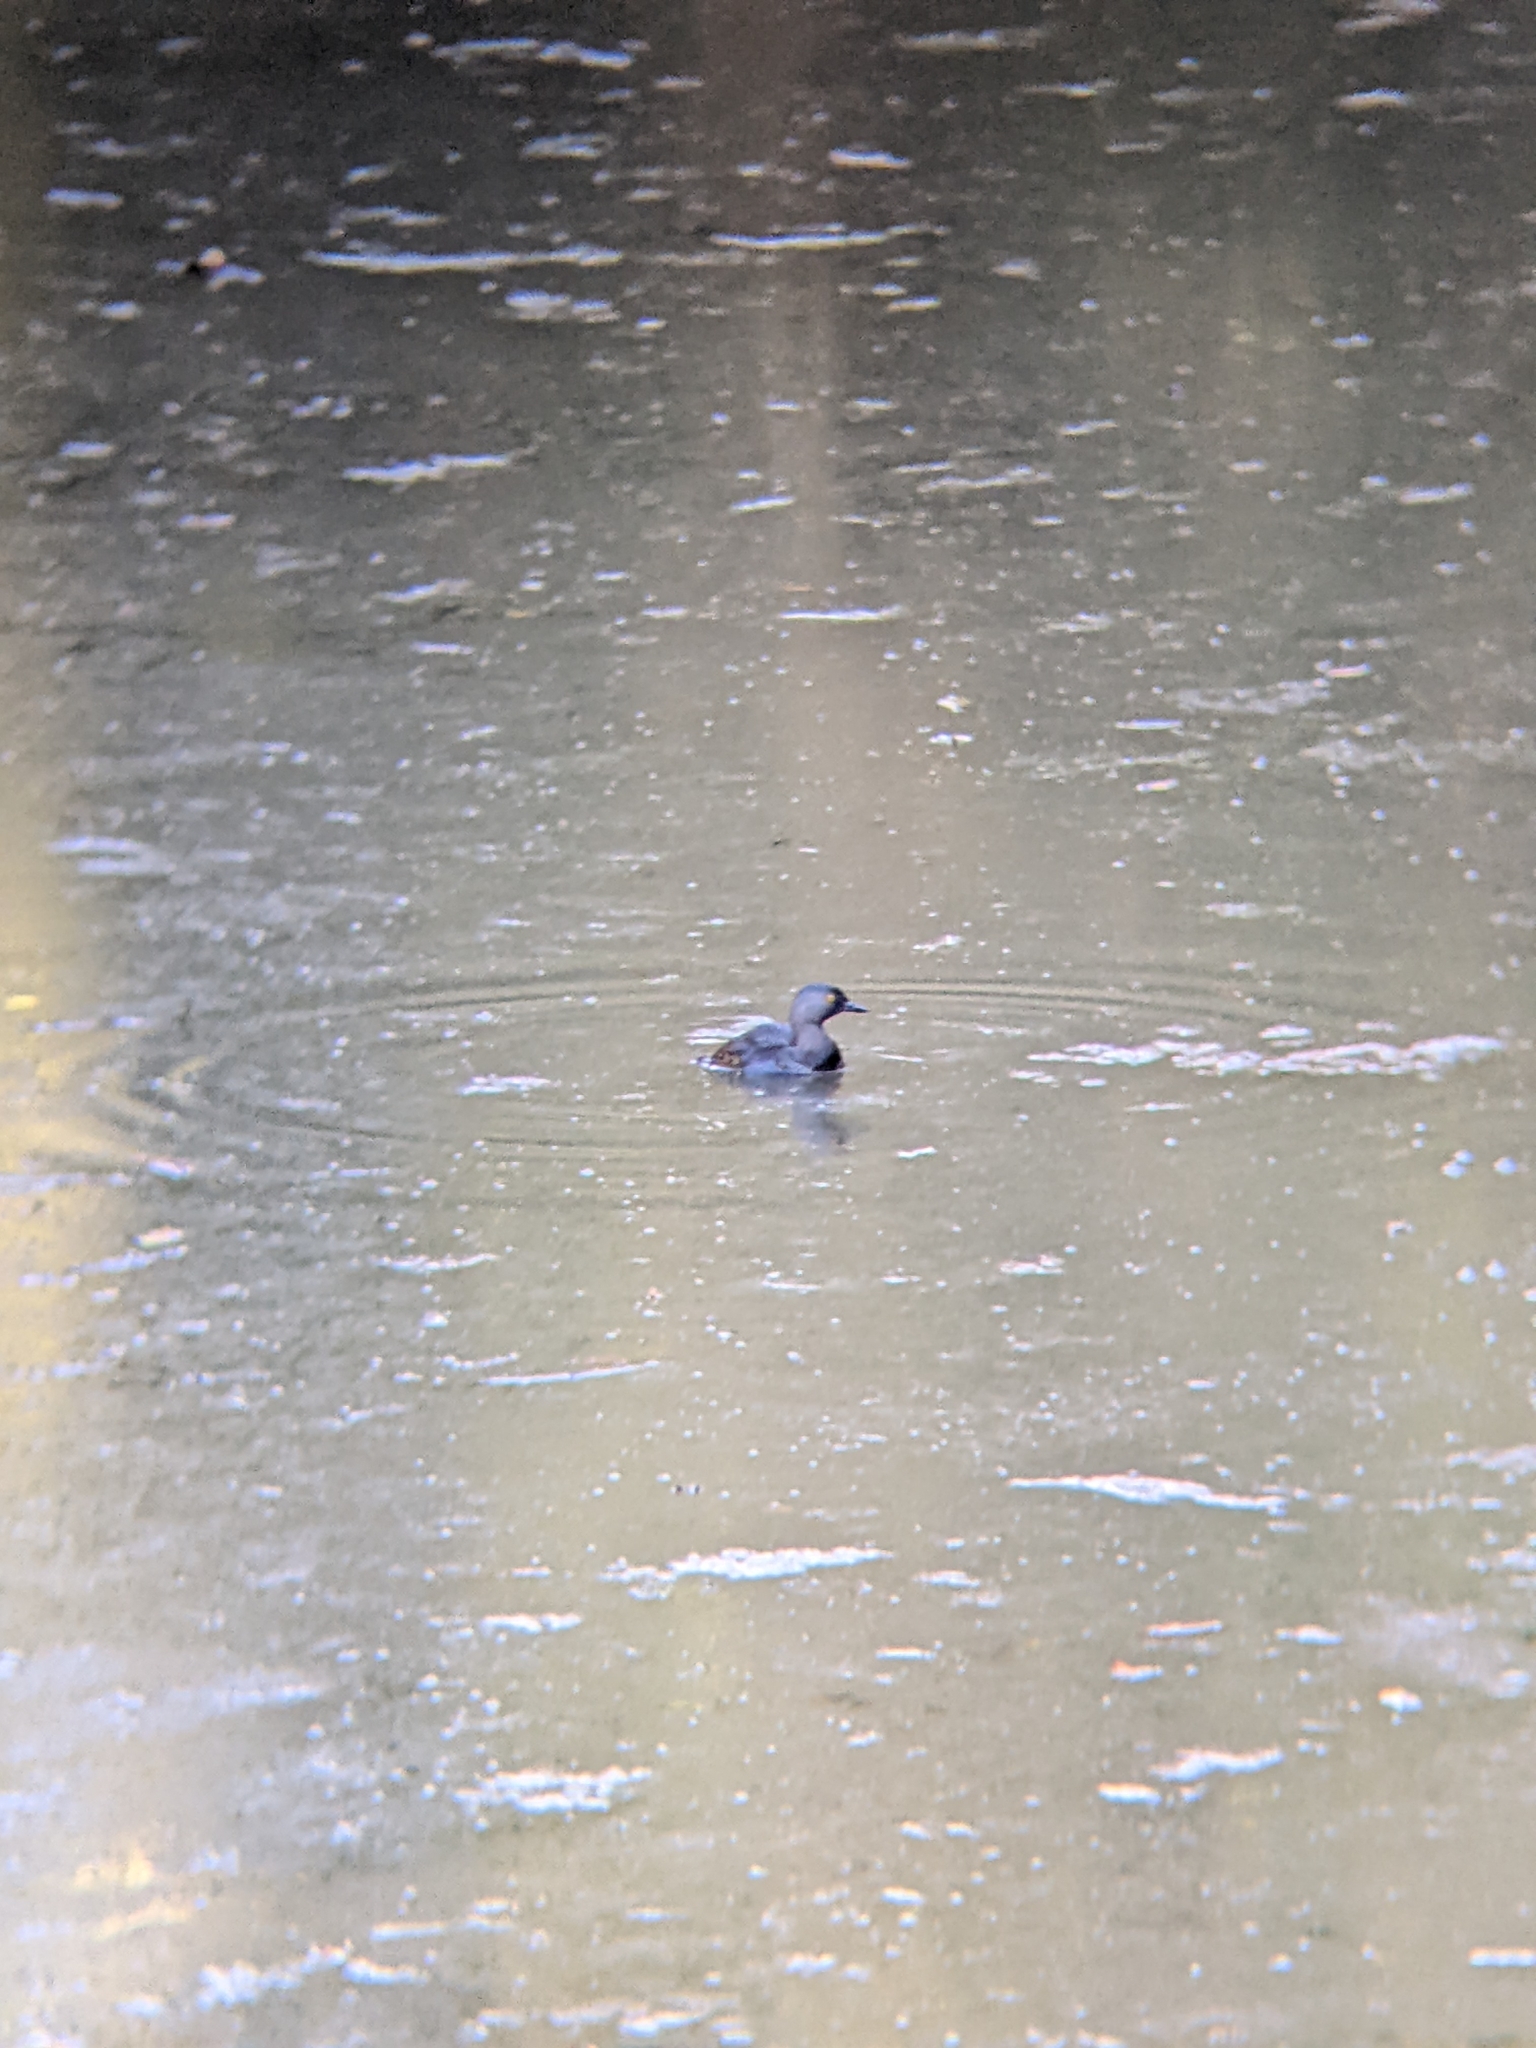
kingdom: Animalia
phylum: Chordata
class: Aves
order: Podicipediformes
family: Podicipedidae
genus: Tachybaptus
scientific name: Tachybaptus dominicus
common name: Least grebe
